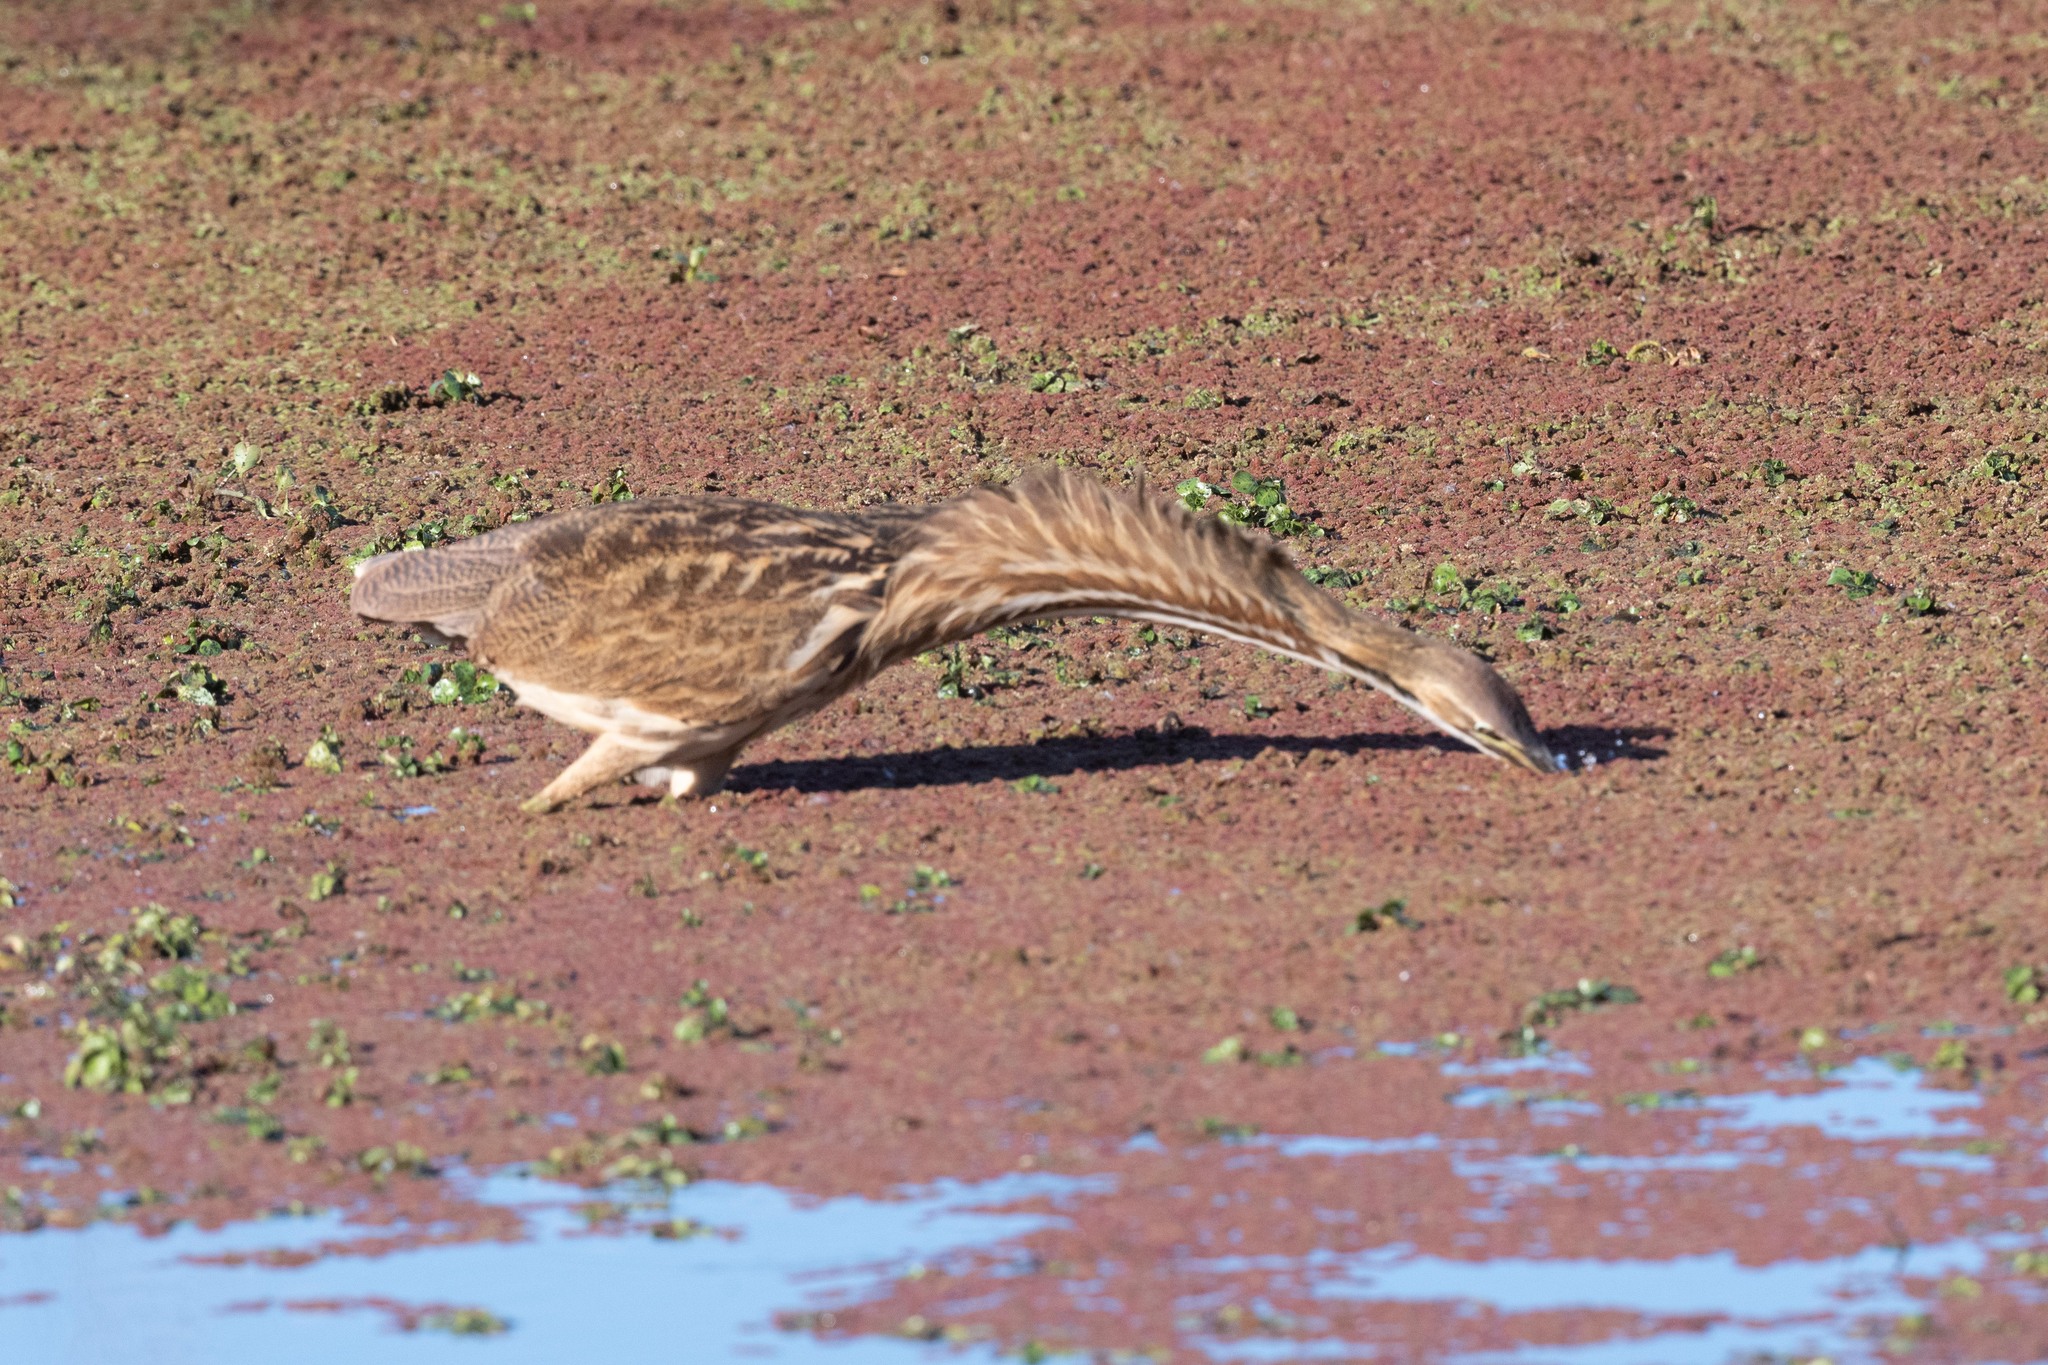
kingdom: Animalia
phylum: Chordata
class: Aves
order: Pelecaniformes
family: Ardeidae
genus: Botaurus
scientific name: Botaurus lentiginosus
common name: American bittern
